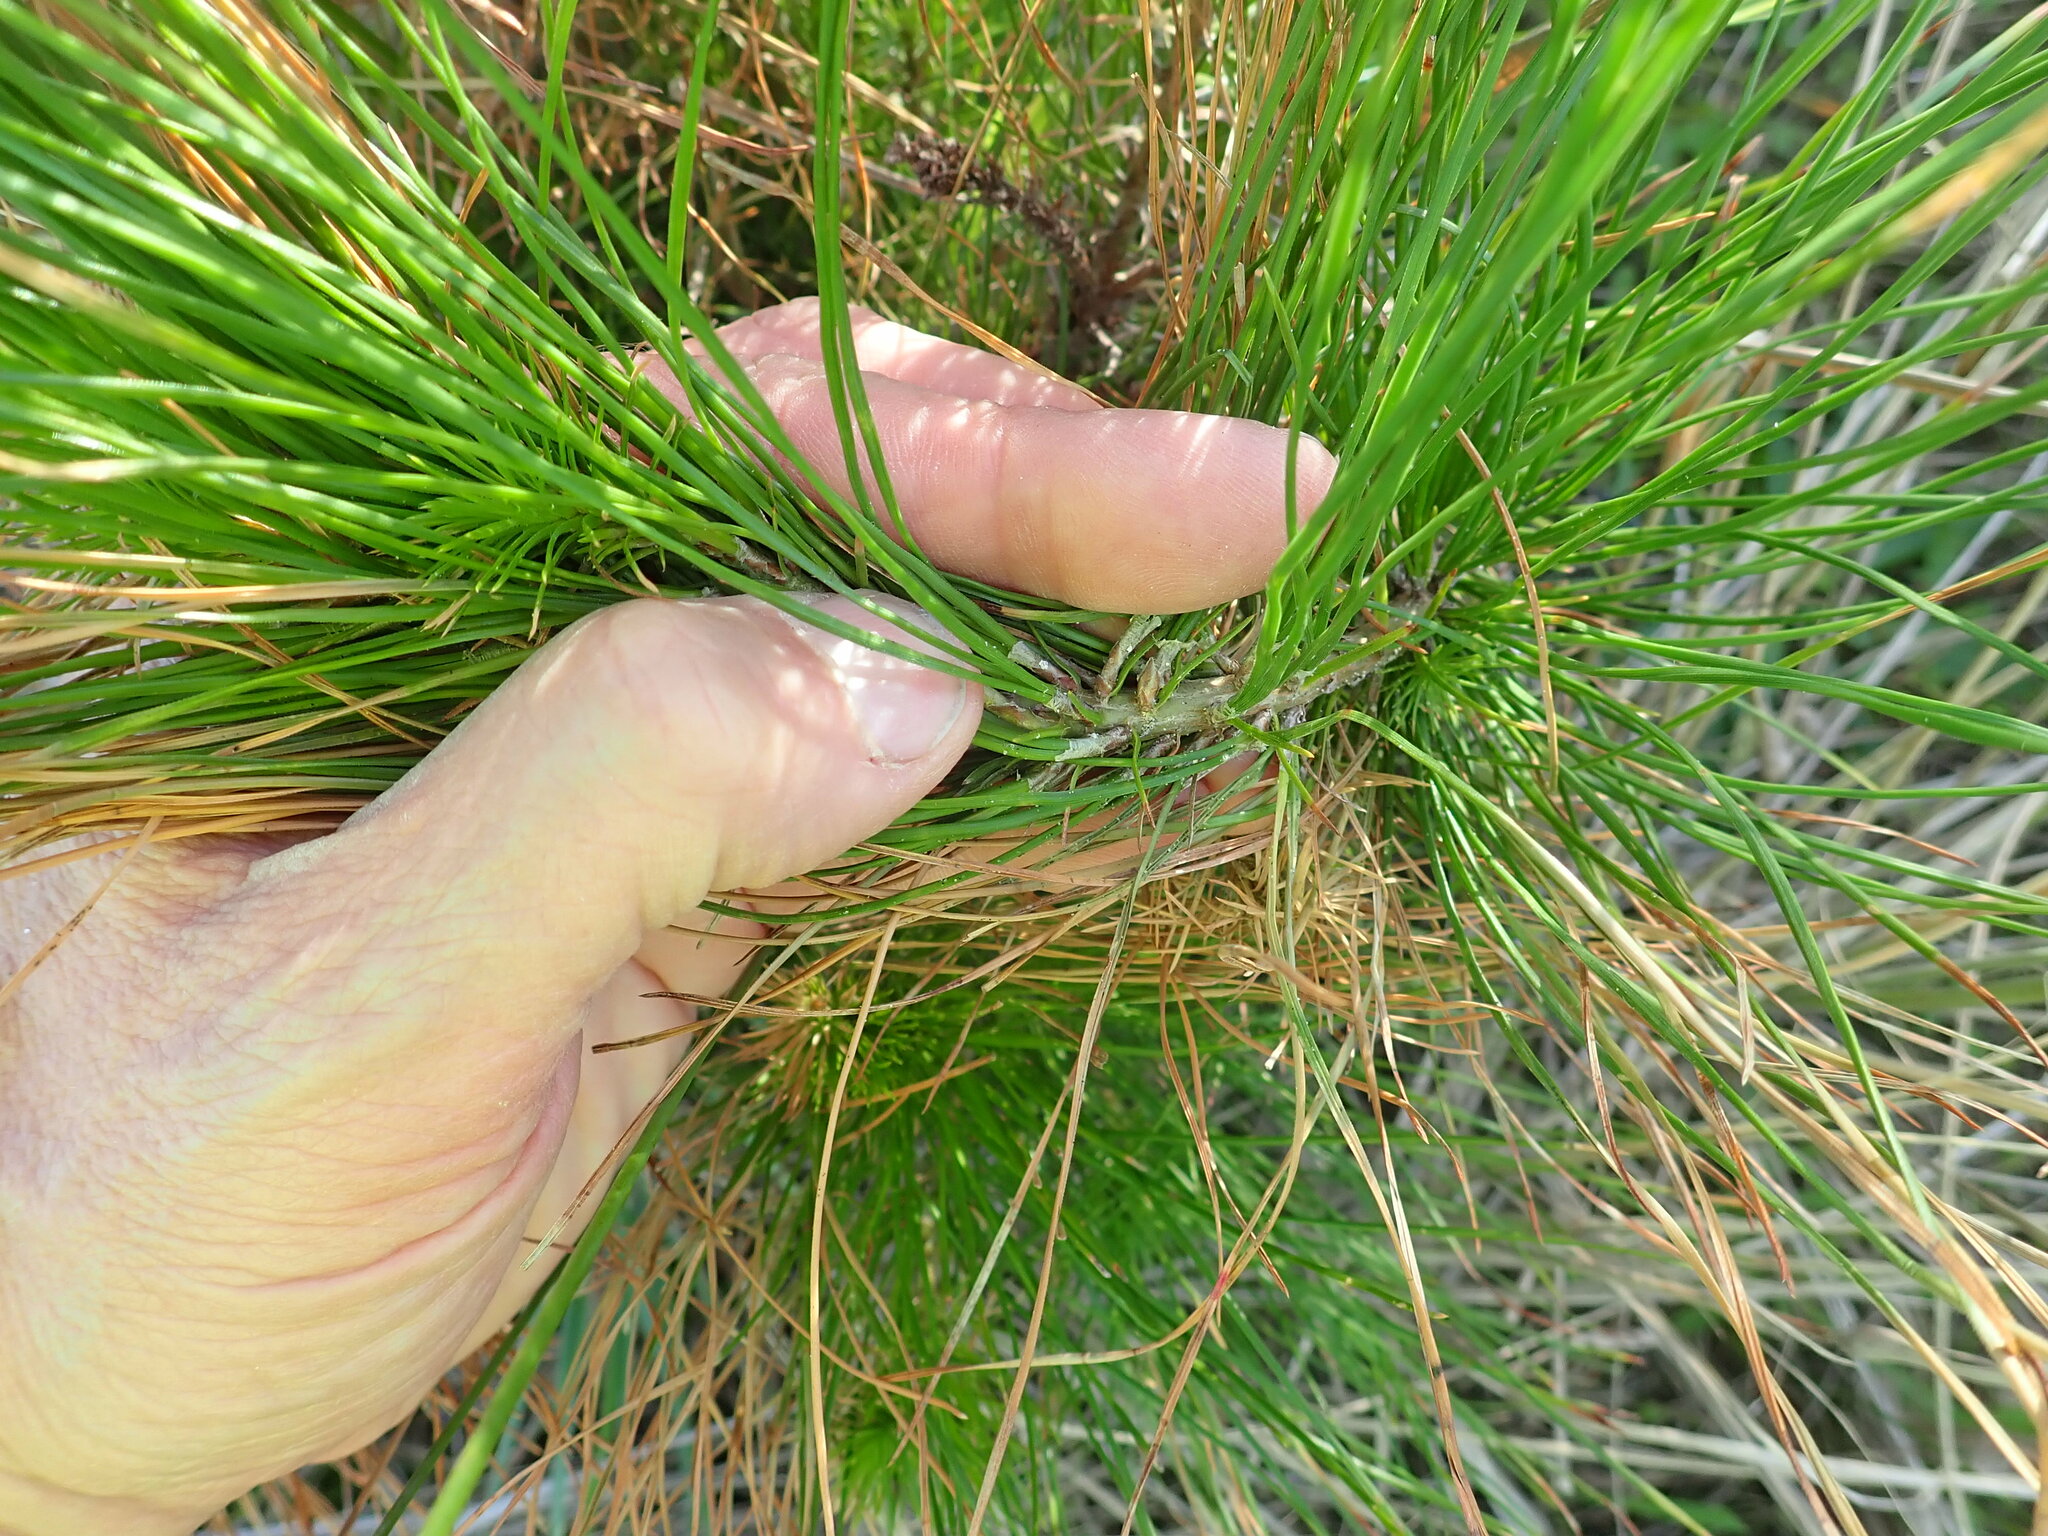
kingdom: Plantae
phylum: Tracheophyta
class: Pinopsida
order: Pinales
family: Pinaceae
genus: Pinus
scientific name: Pinus radiata
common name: Monterey pine
